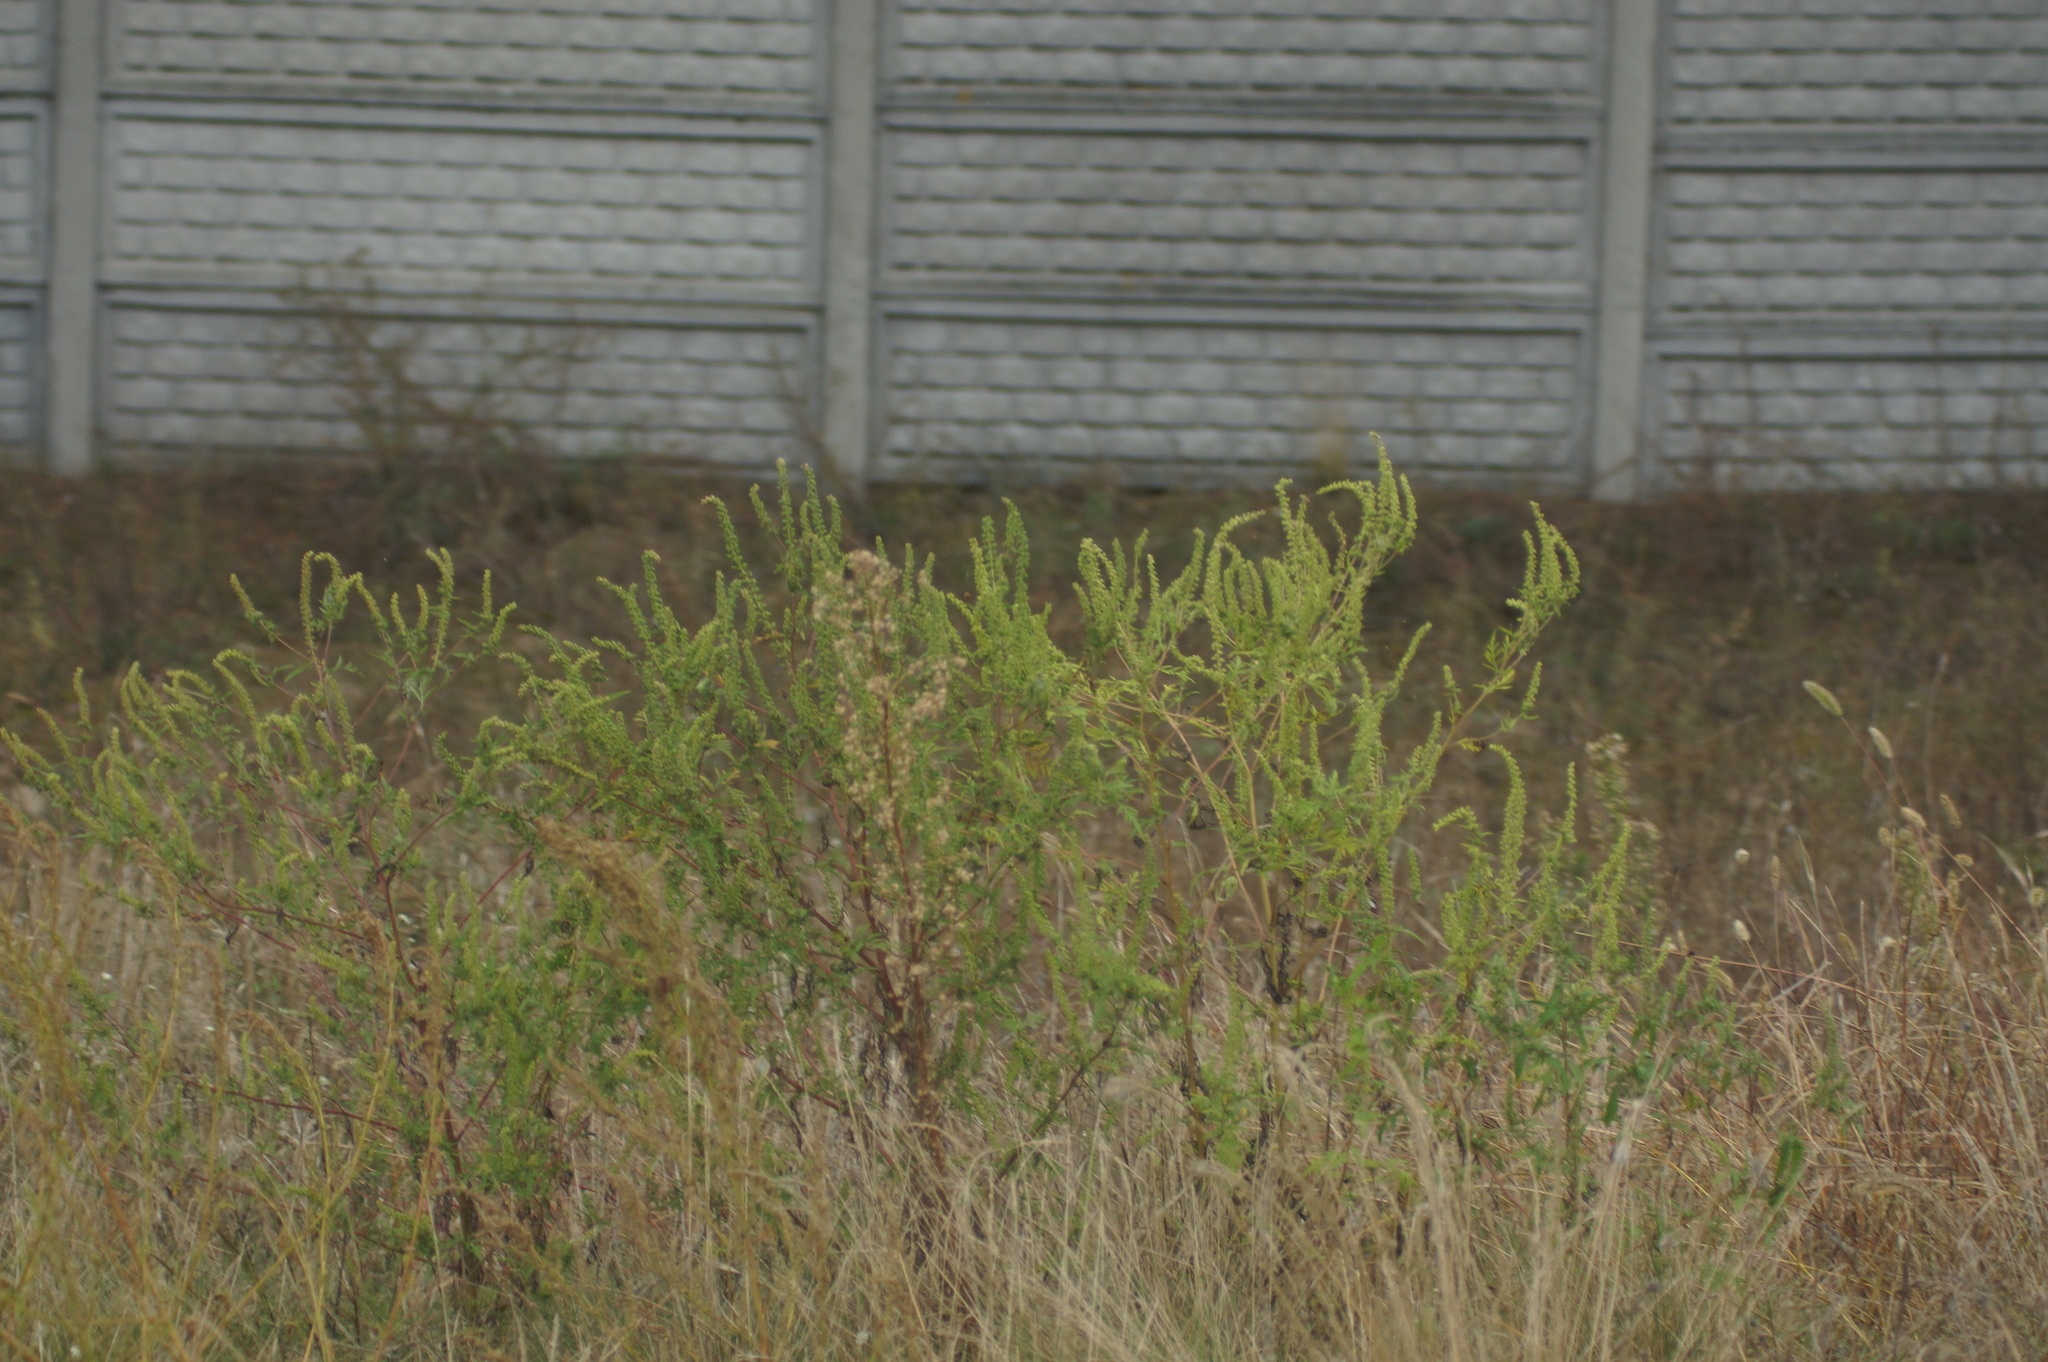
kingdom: Plantae
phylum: Tracheophyta
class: Magnoliopsida
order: Asterales
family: Asteraceae
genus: Ambrosia
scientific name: Ambrosia artemisiifolia
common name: Annual ragweed
